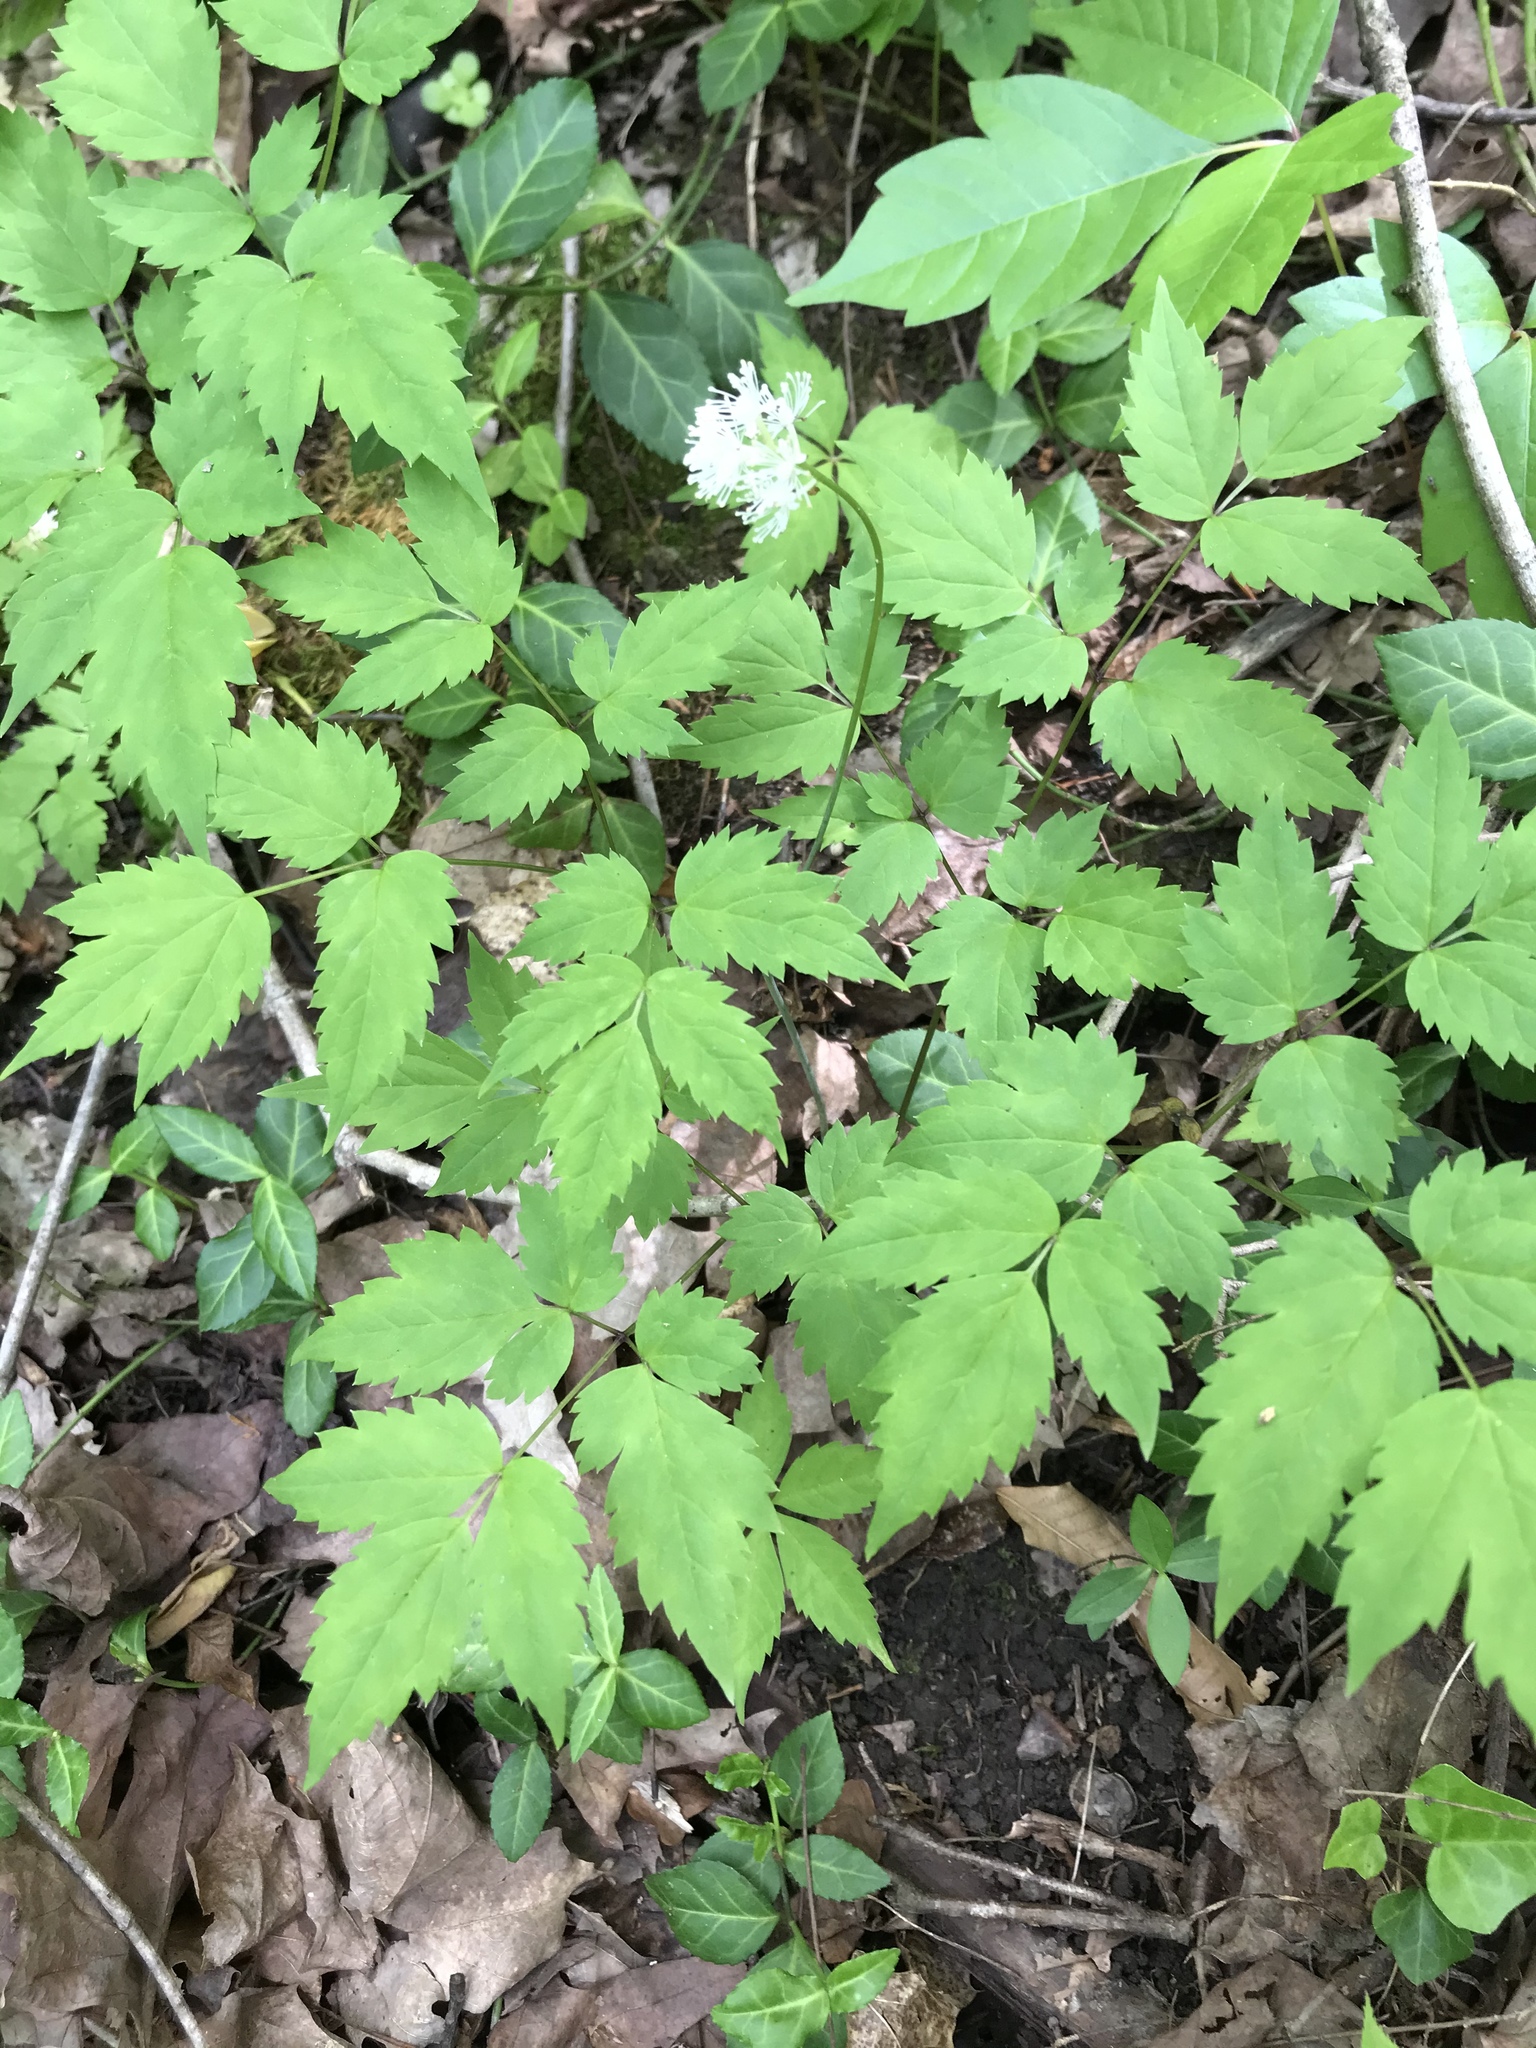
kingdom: Plantae
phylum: Tracheophyta
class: Magnoliopsida
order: Ranunculales
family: Ranunculaceae
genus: Actaea
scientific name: Actaea pachypoda
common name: Doll's-eyes
